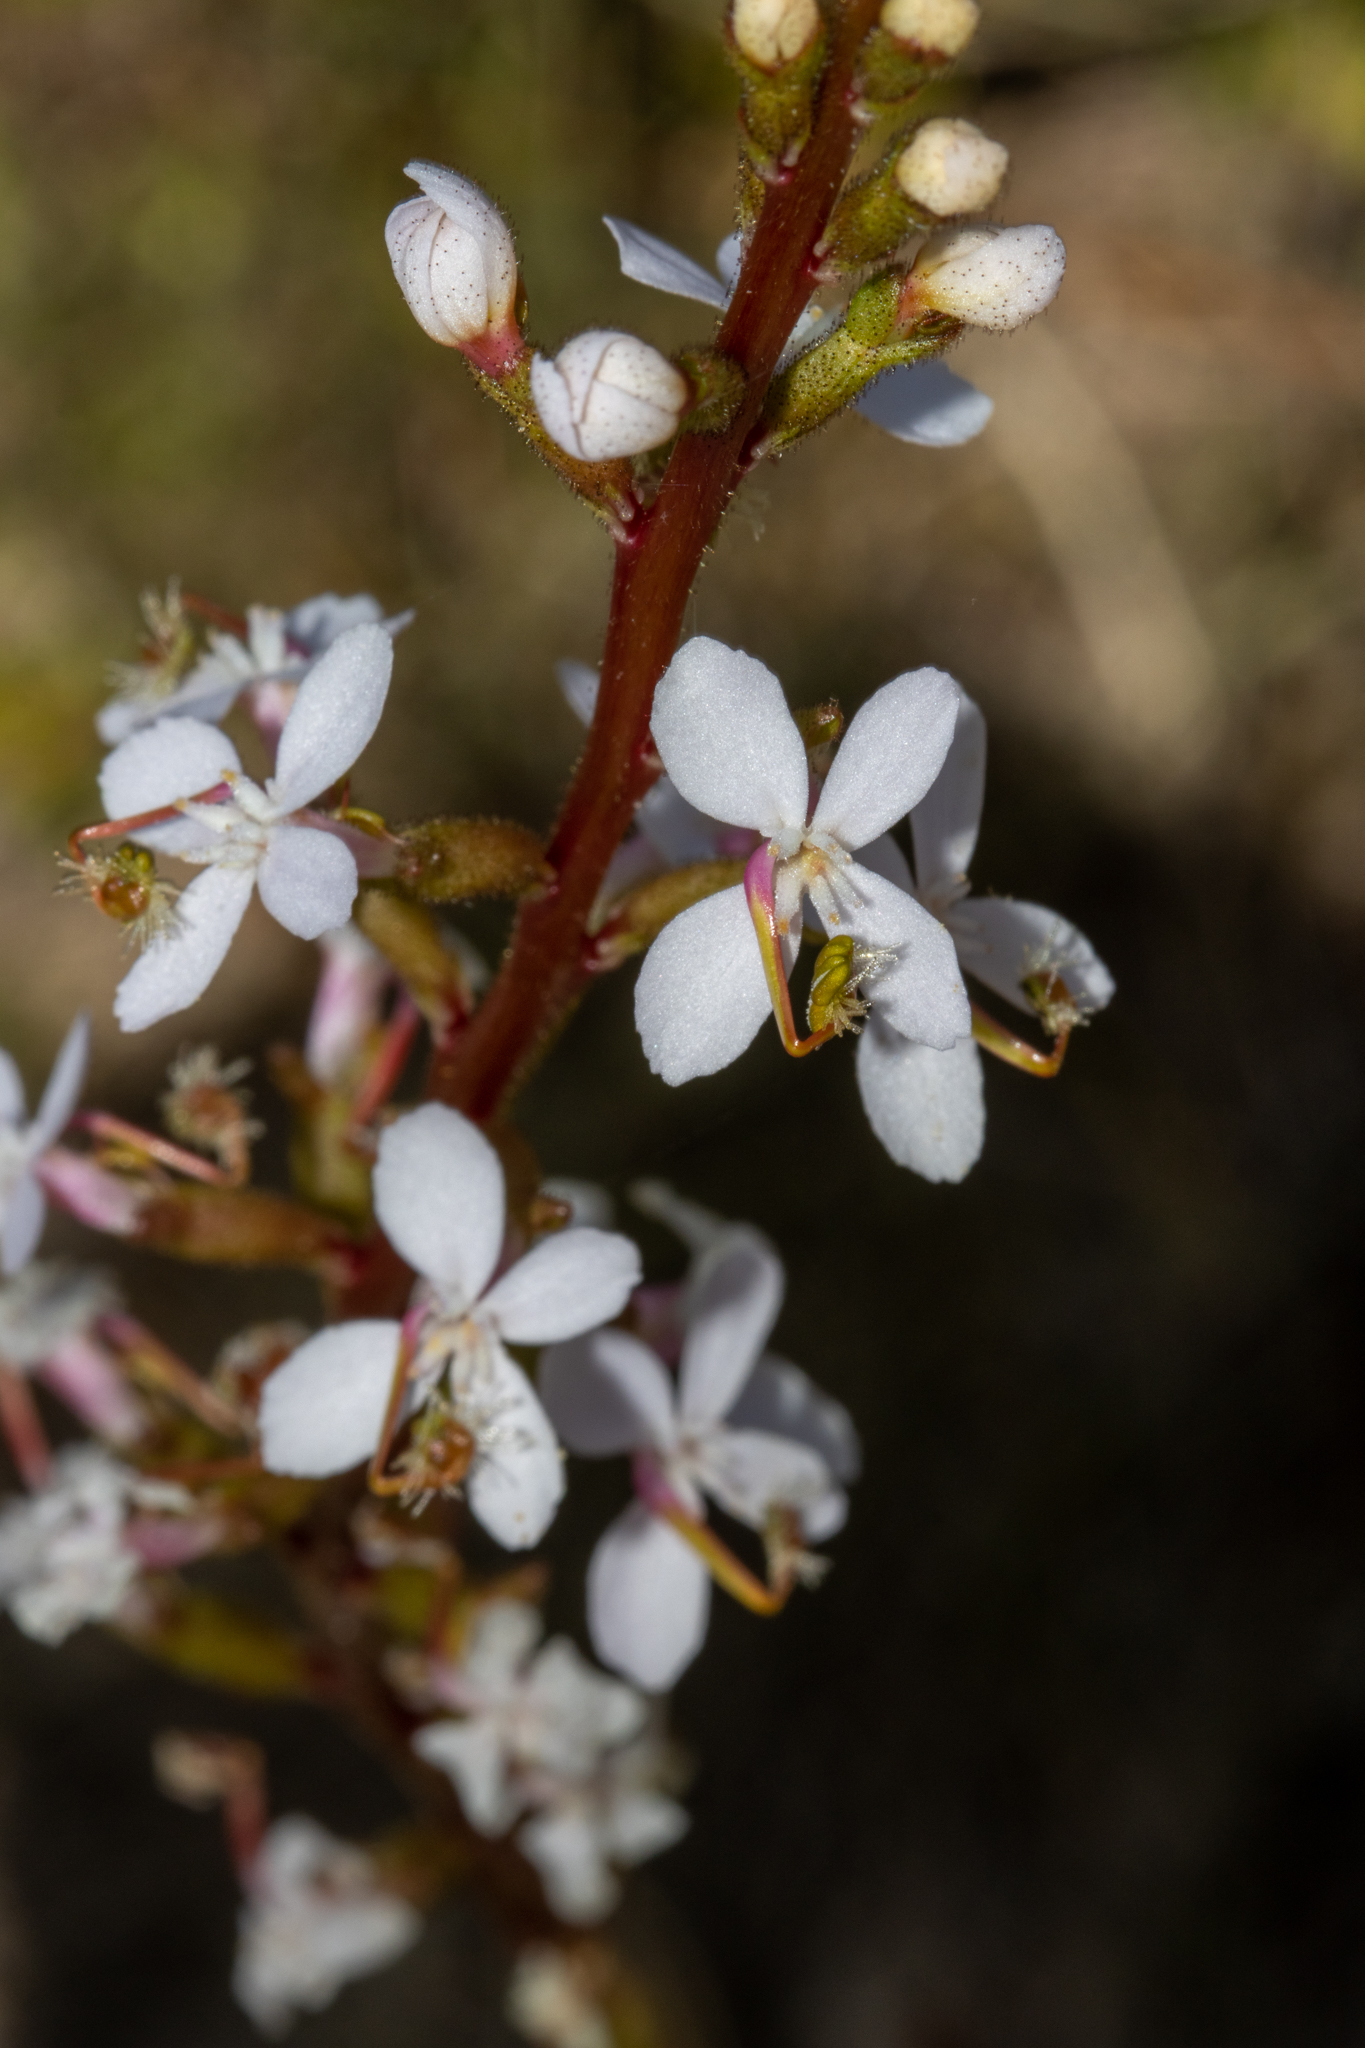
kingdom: Plantae
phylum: Tracheophyta
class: Magnoliopsida
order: Asterales
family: Stylidiaceae
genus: Stylidium
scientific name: Stylidium graminifolium
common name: Grass triggerplant
